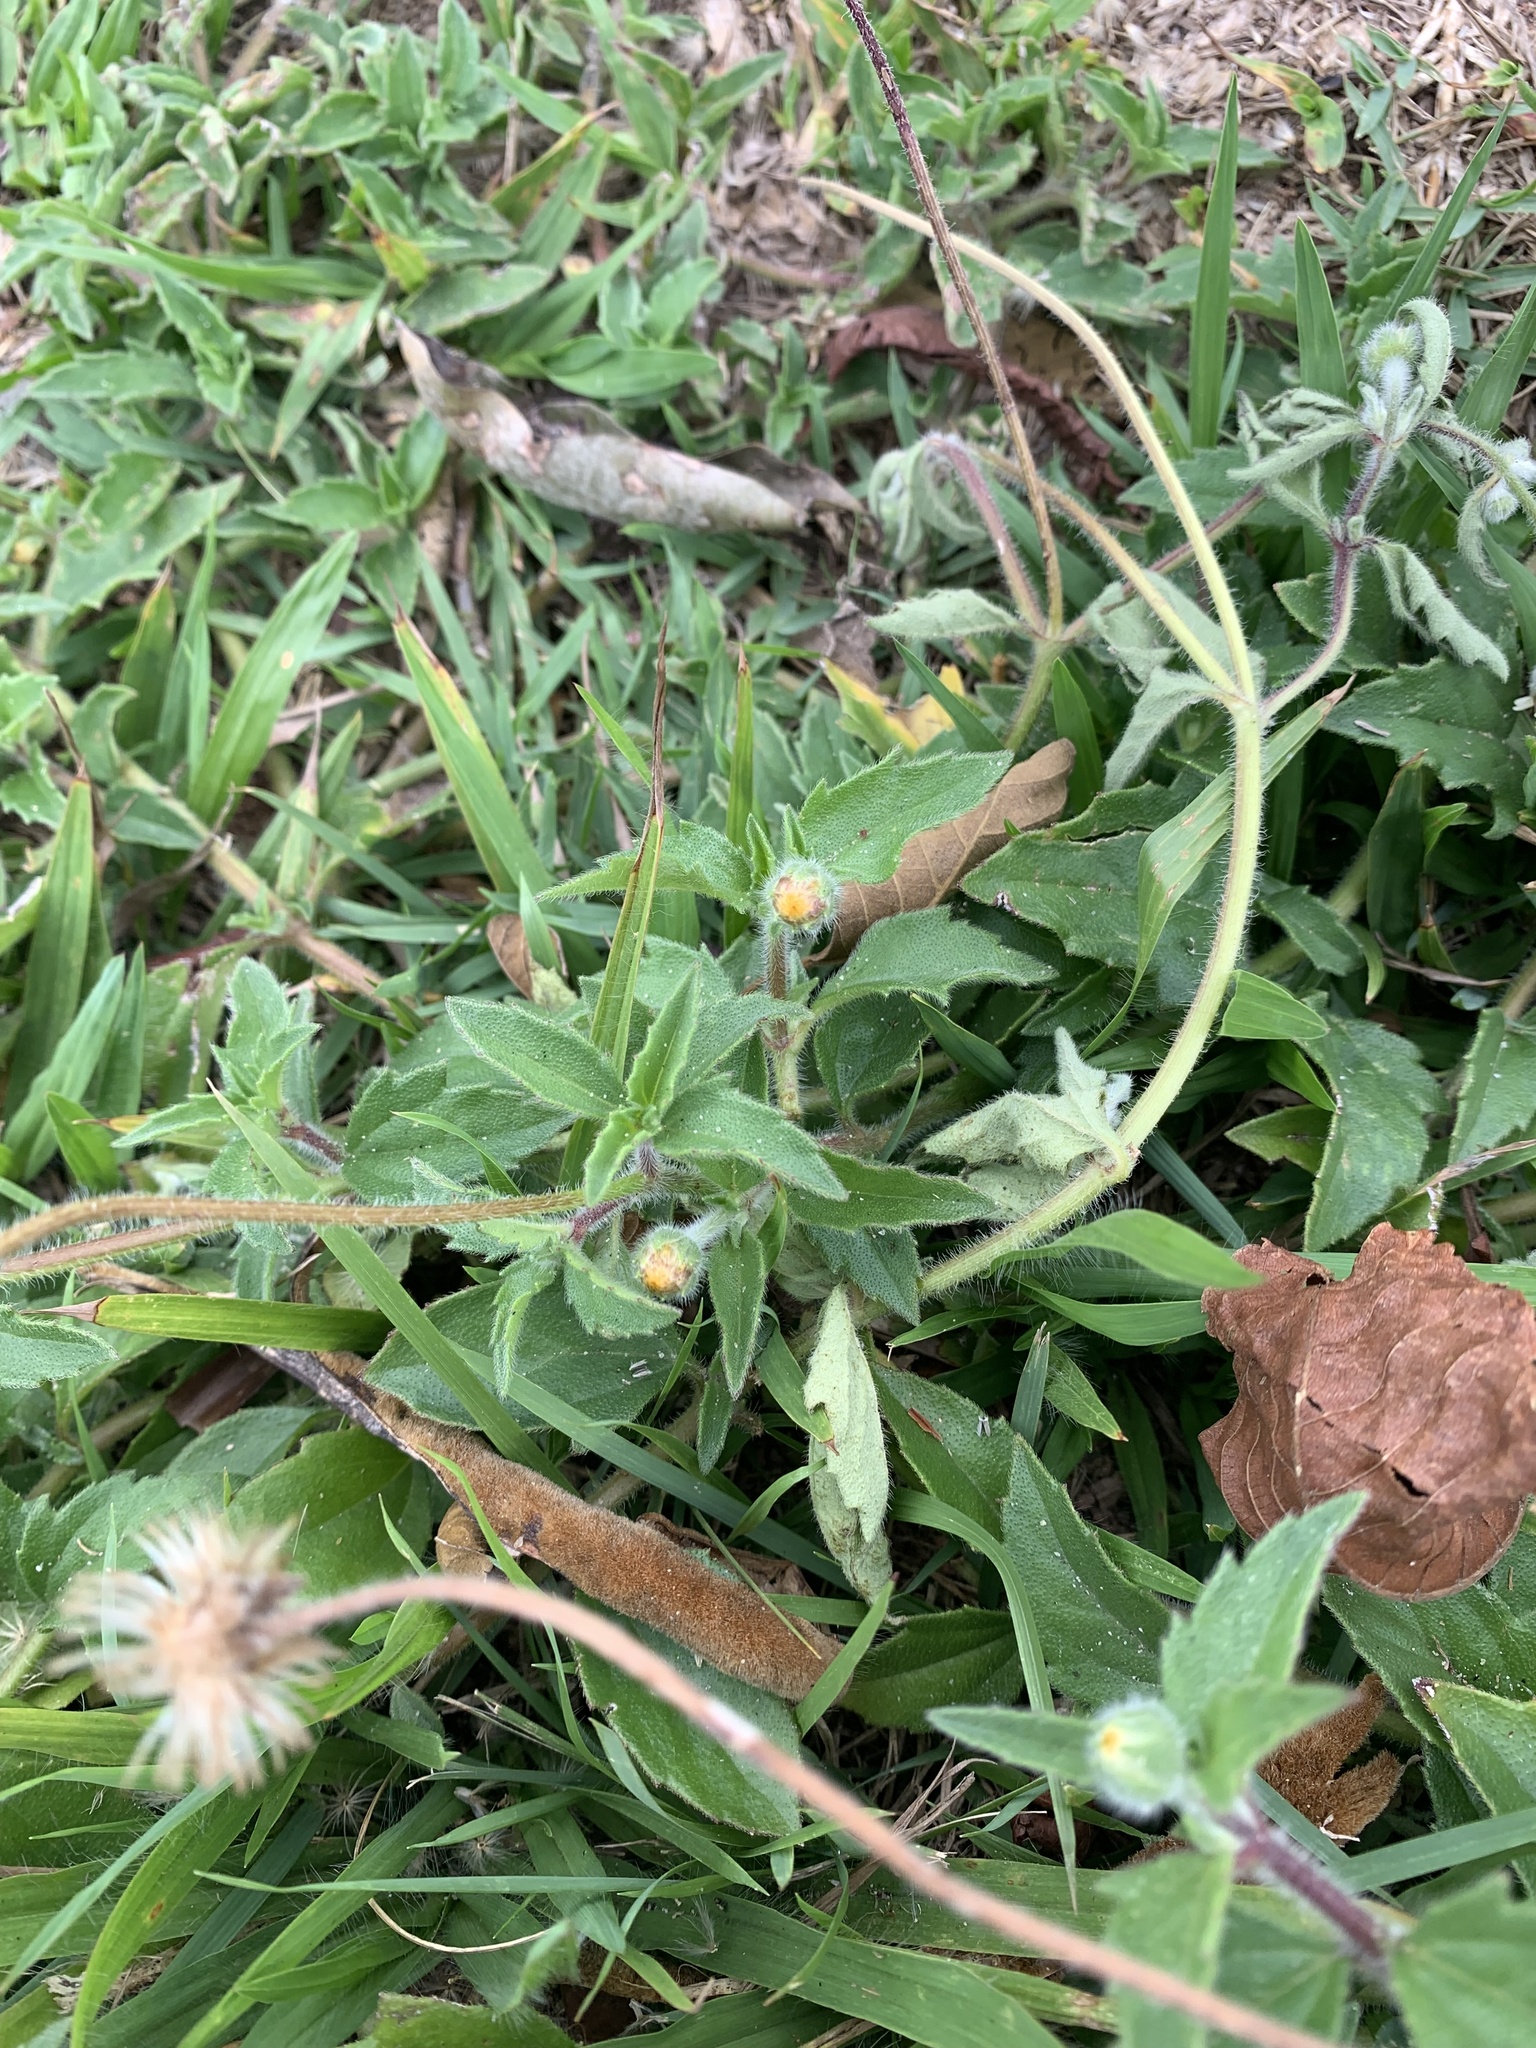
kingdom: Plantae
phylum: Tracheophyta
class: Magnoliopsida
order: Asterales
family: Asteraceae
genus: Tridax
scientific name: Tridax procumbens
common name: Coatbuttons
